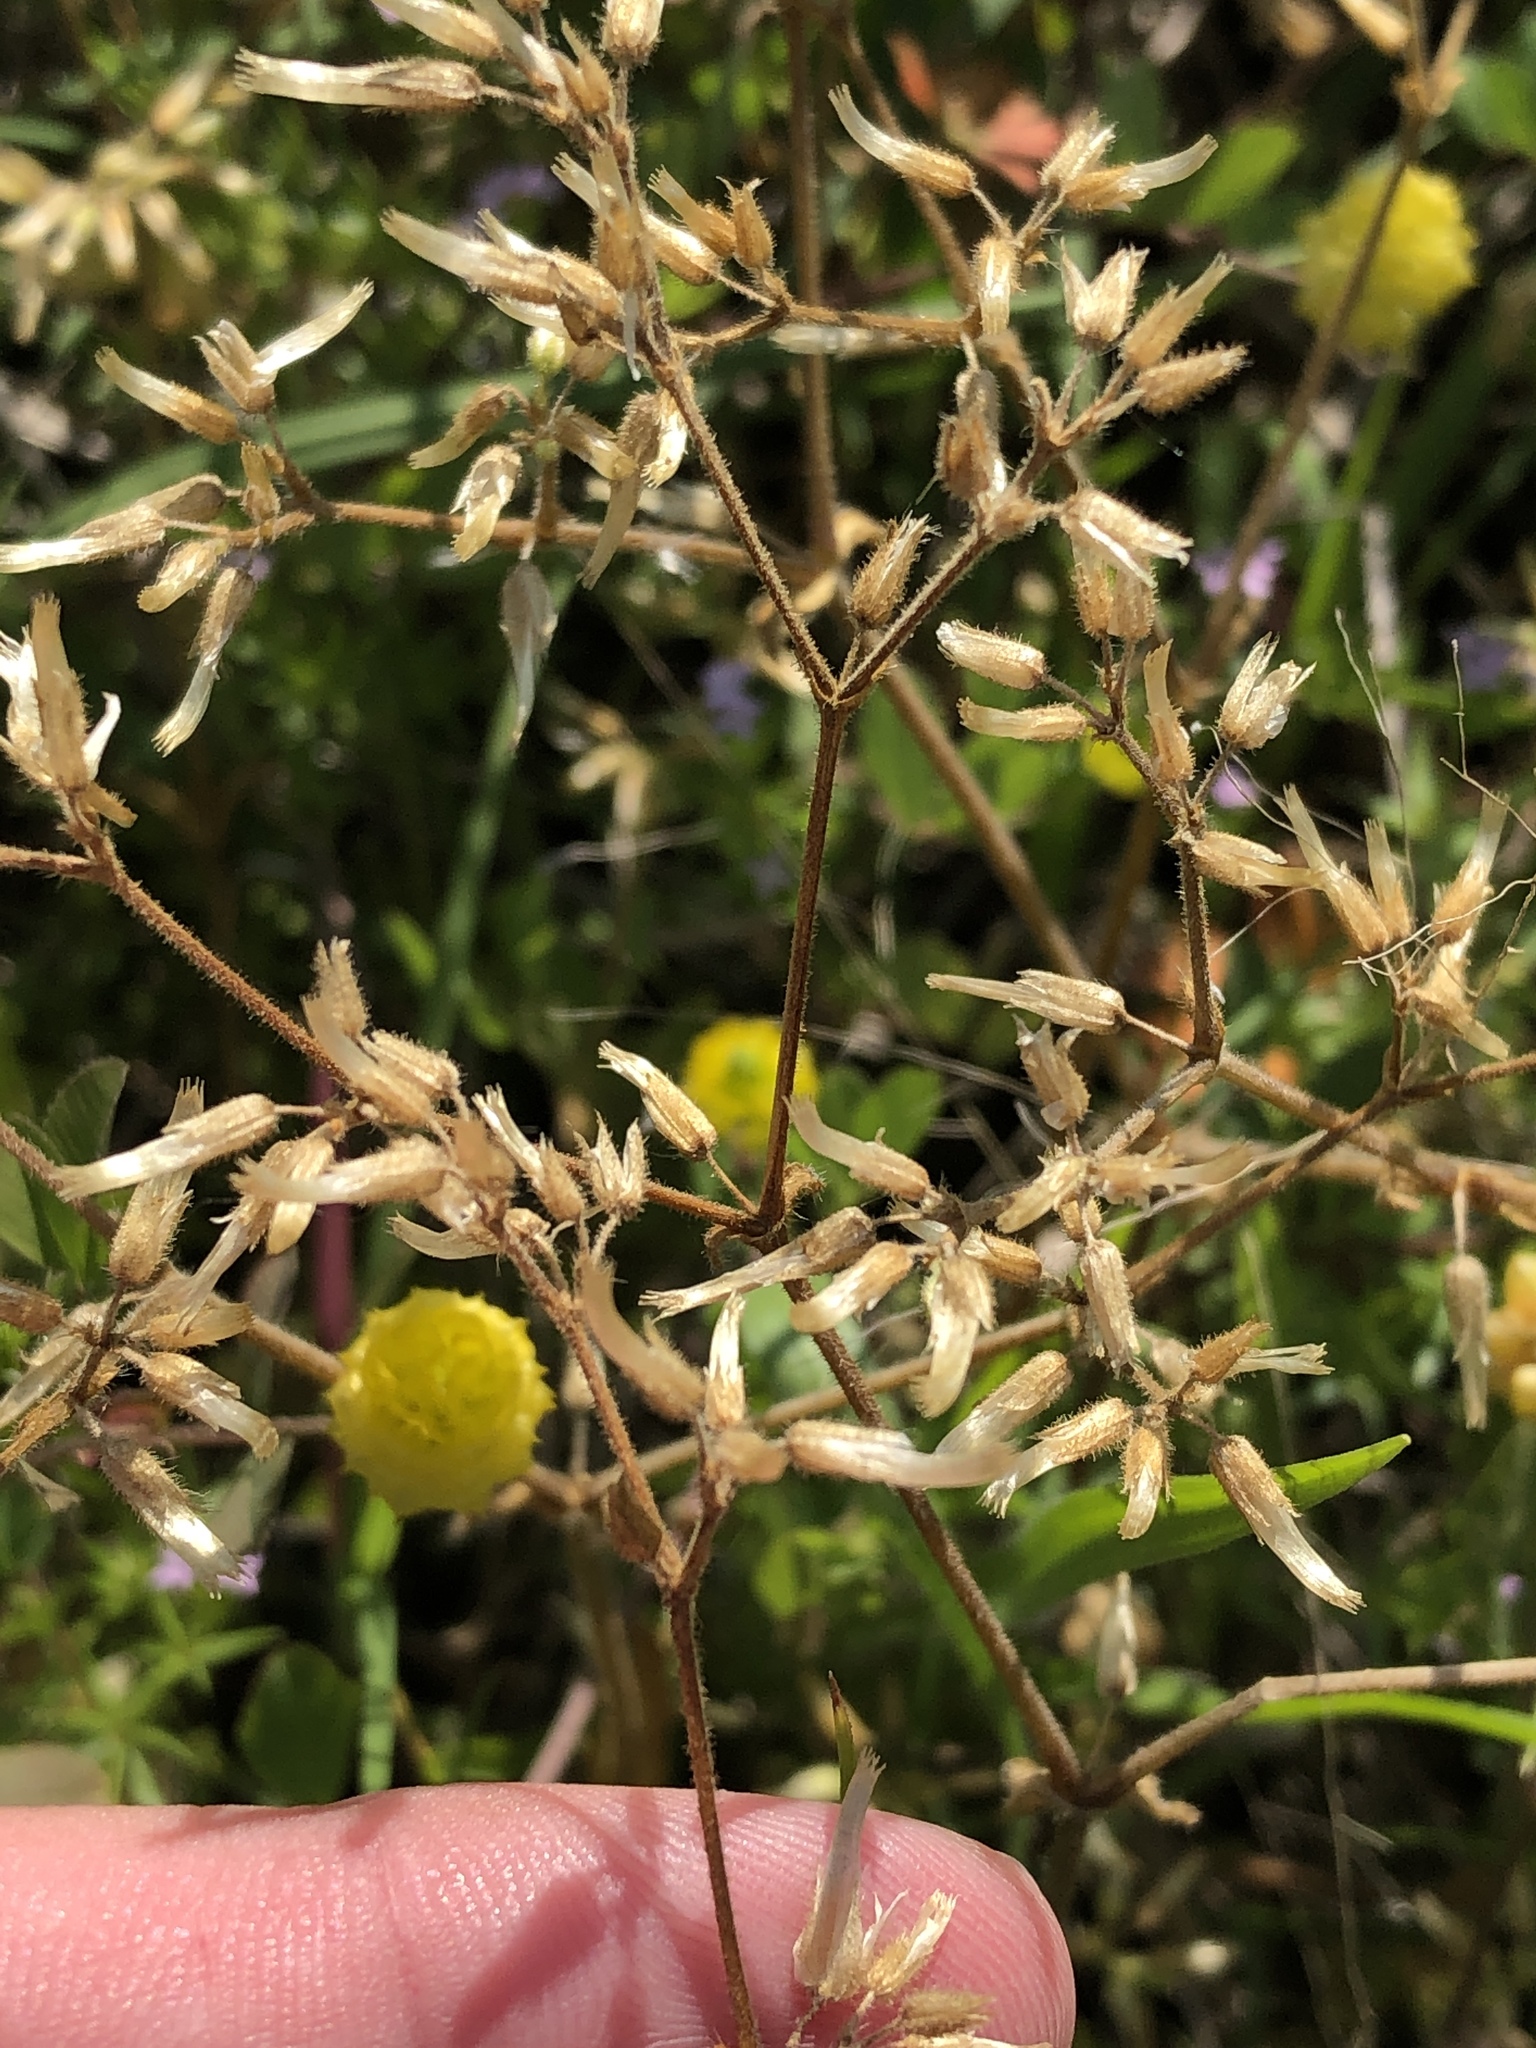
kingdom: Plantae
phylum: Tracheophyta
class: Magnoliopsida
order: Caryophyllales
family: Caryophyllaceae
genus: Cerastium
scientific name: Cerastium glomeratum
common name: Sticky chickweed
